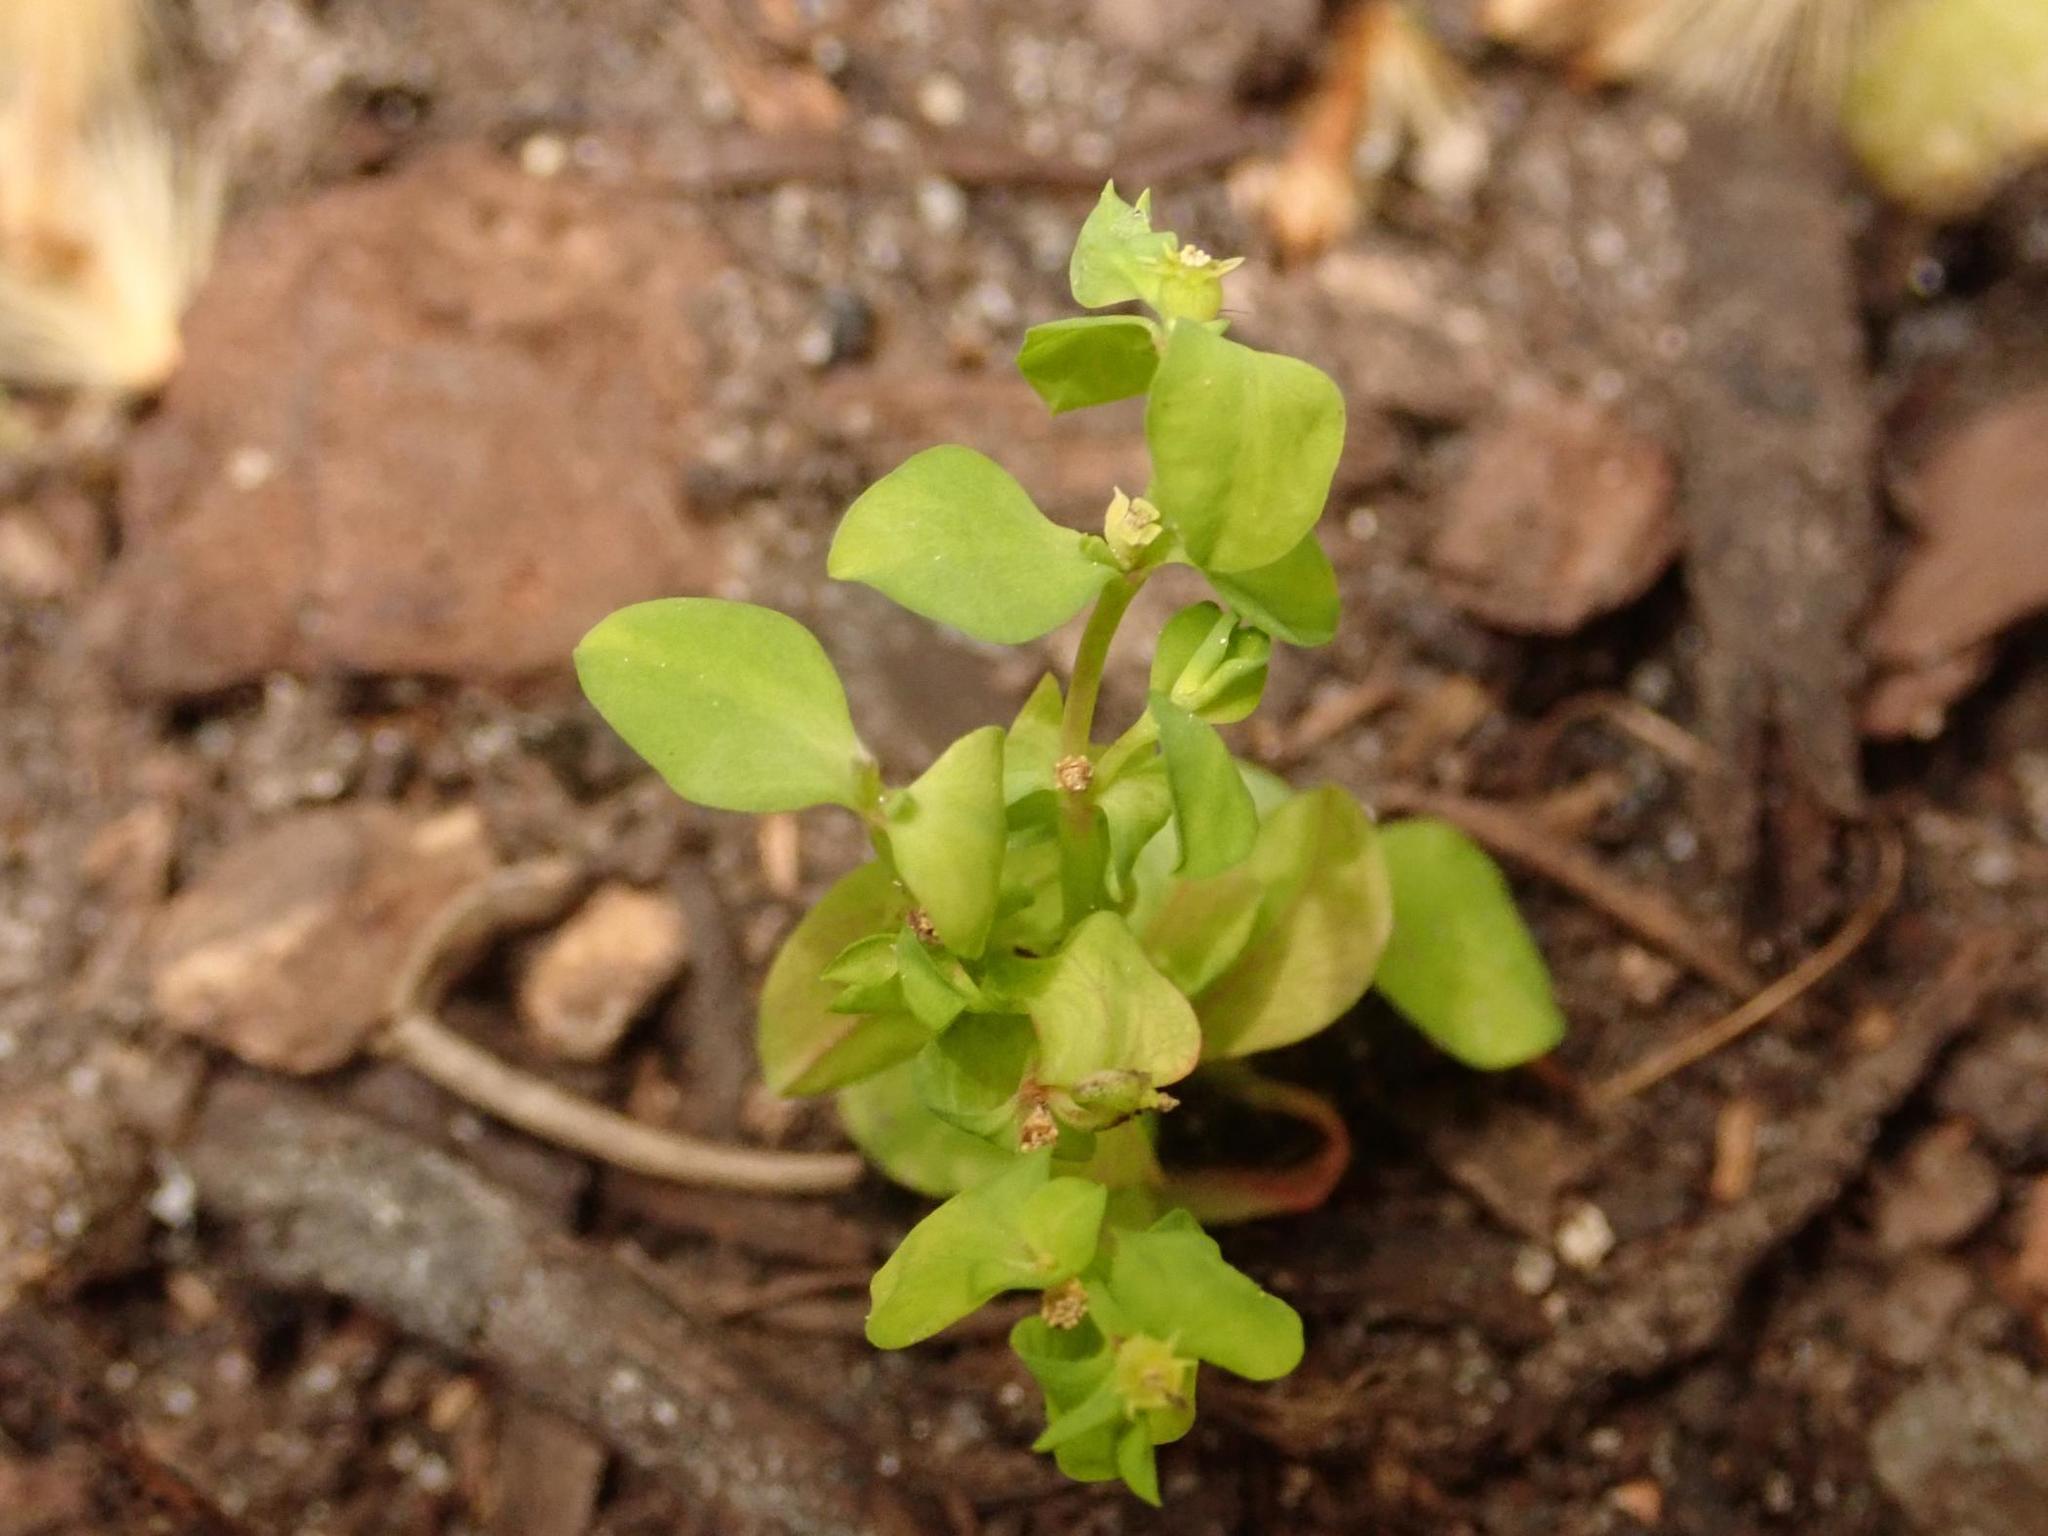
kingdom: Plantae
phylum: Tracheophyta
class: Magnoliopsida
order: Malpighiales
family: Euphorbiaceae
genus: Euphorbia
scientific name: Euphorbia peplus
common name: Petty spurge
